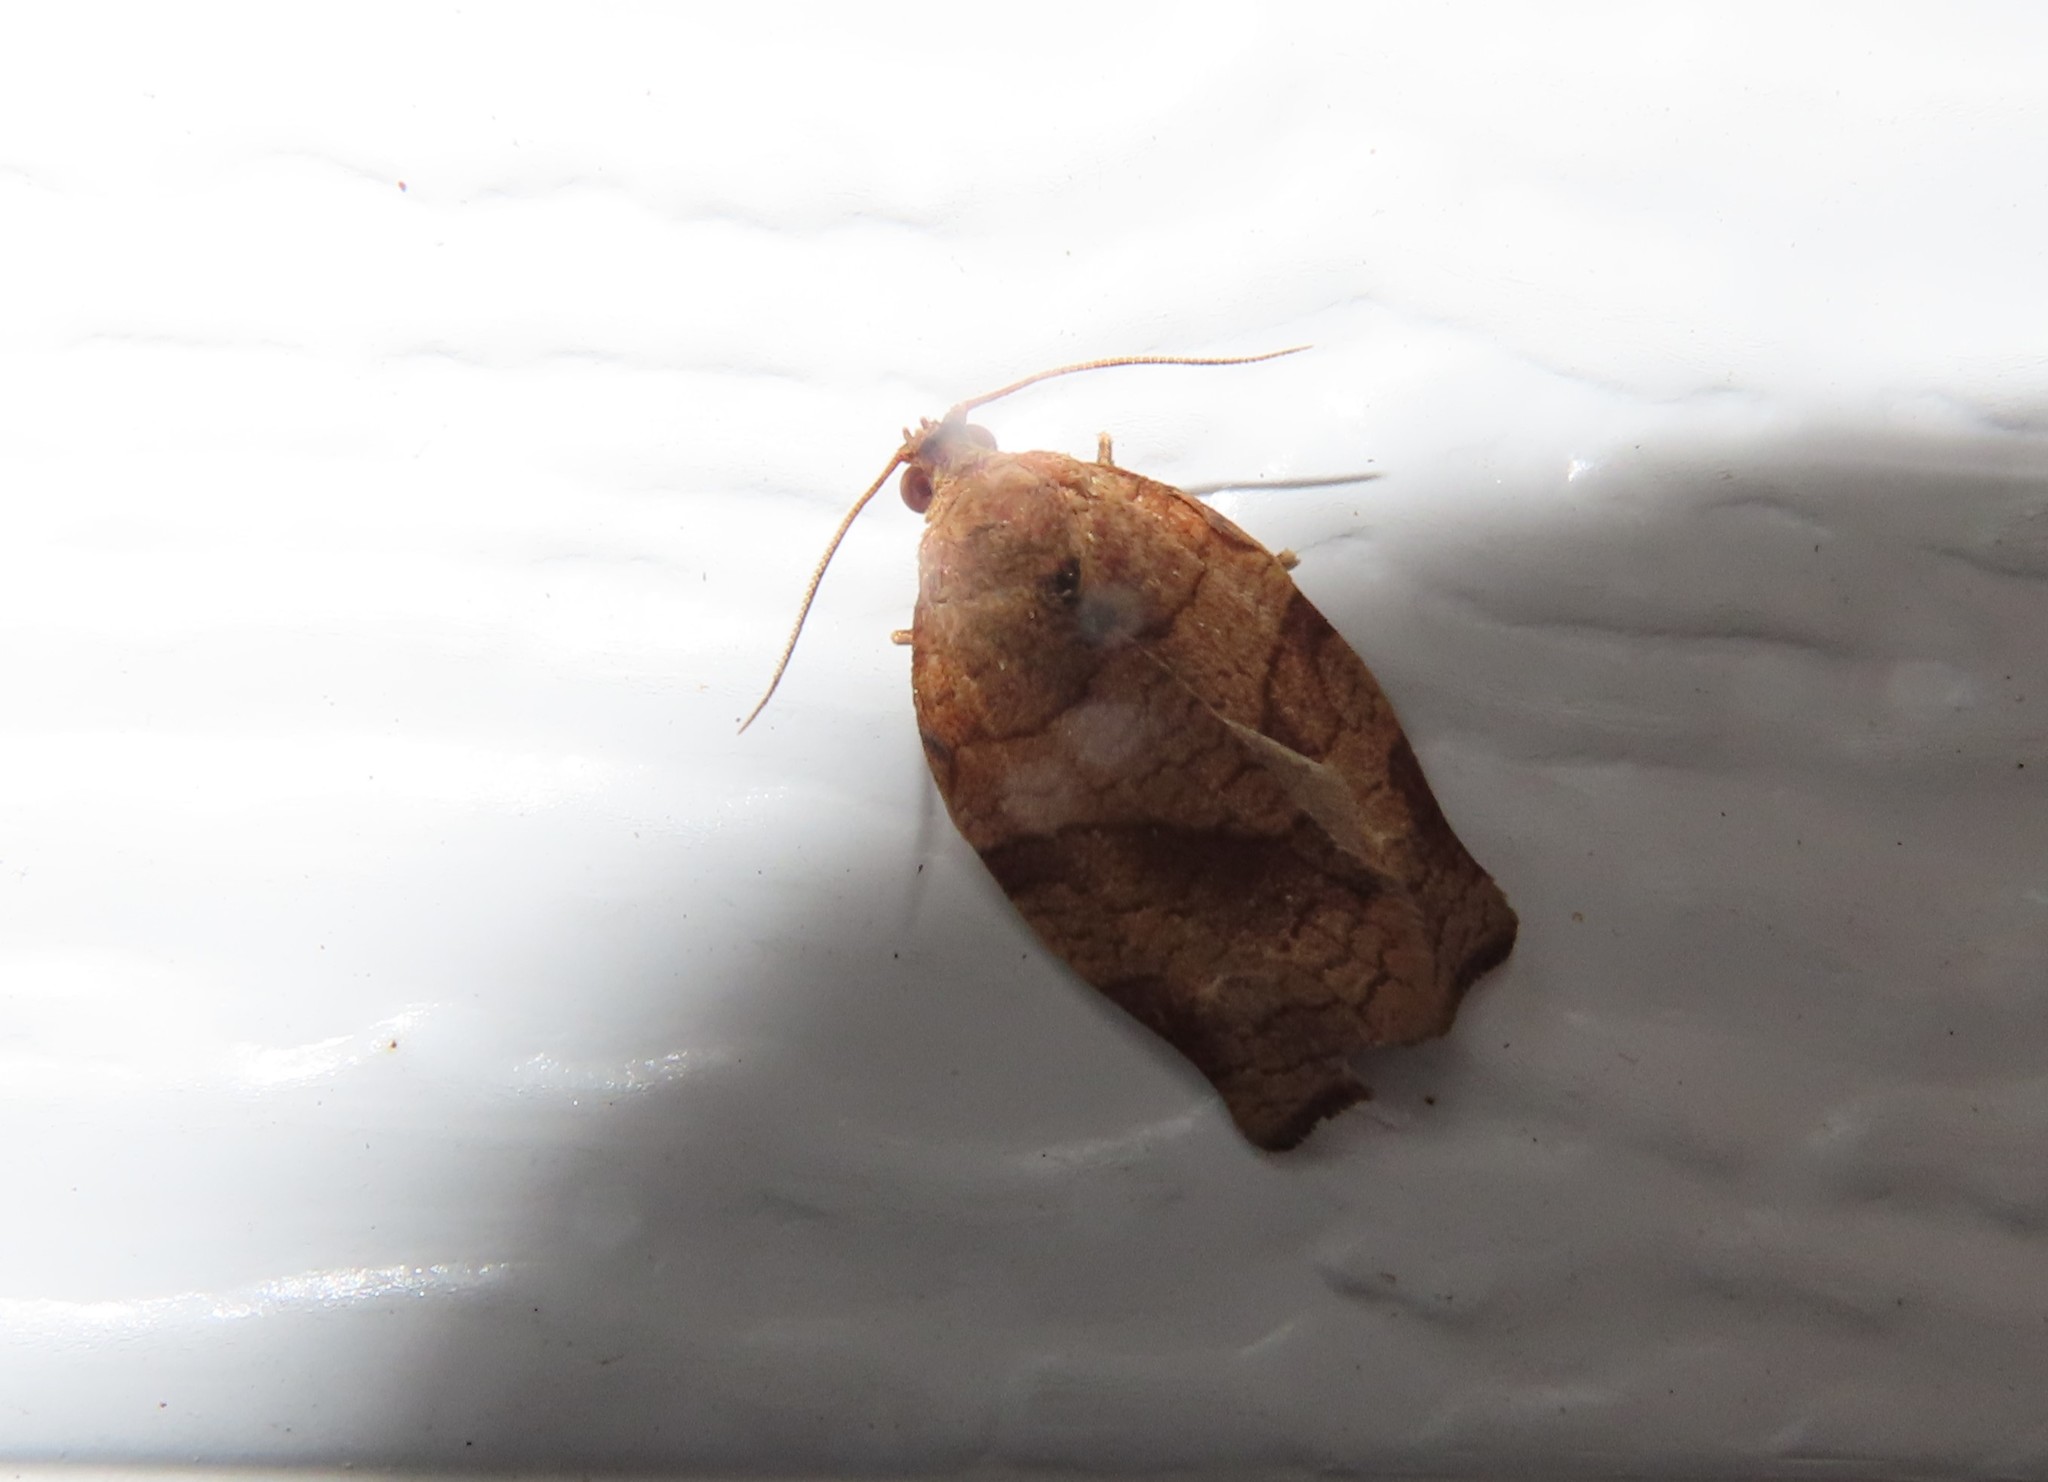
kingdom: Animalia
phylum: Arthropoda
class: Insecta
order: Lepidoptera
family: Tortricidae
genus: Choristoneura
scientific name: Choristoneura rosaceana
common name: Oblique-banded leafroller moth
